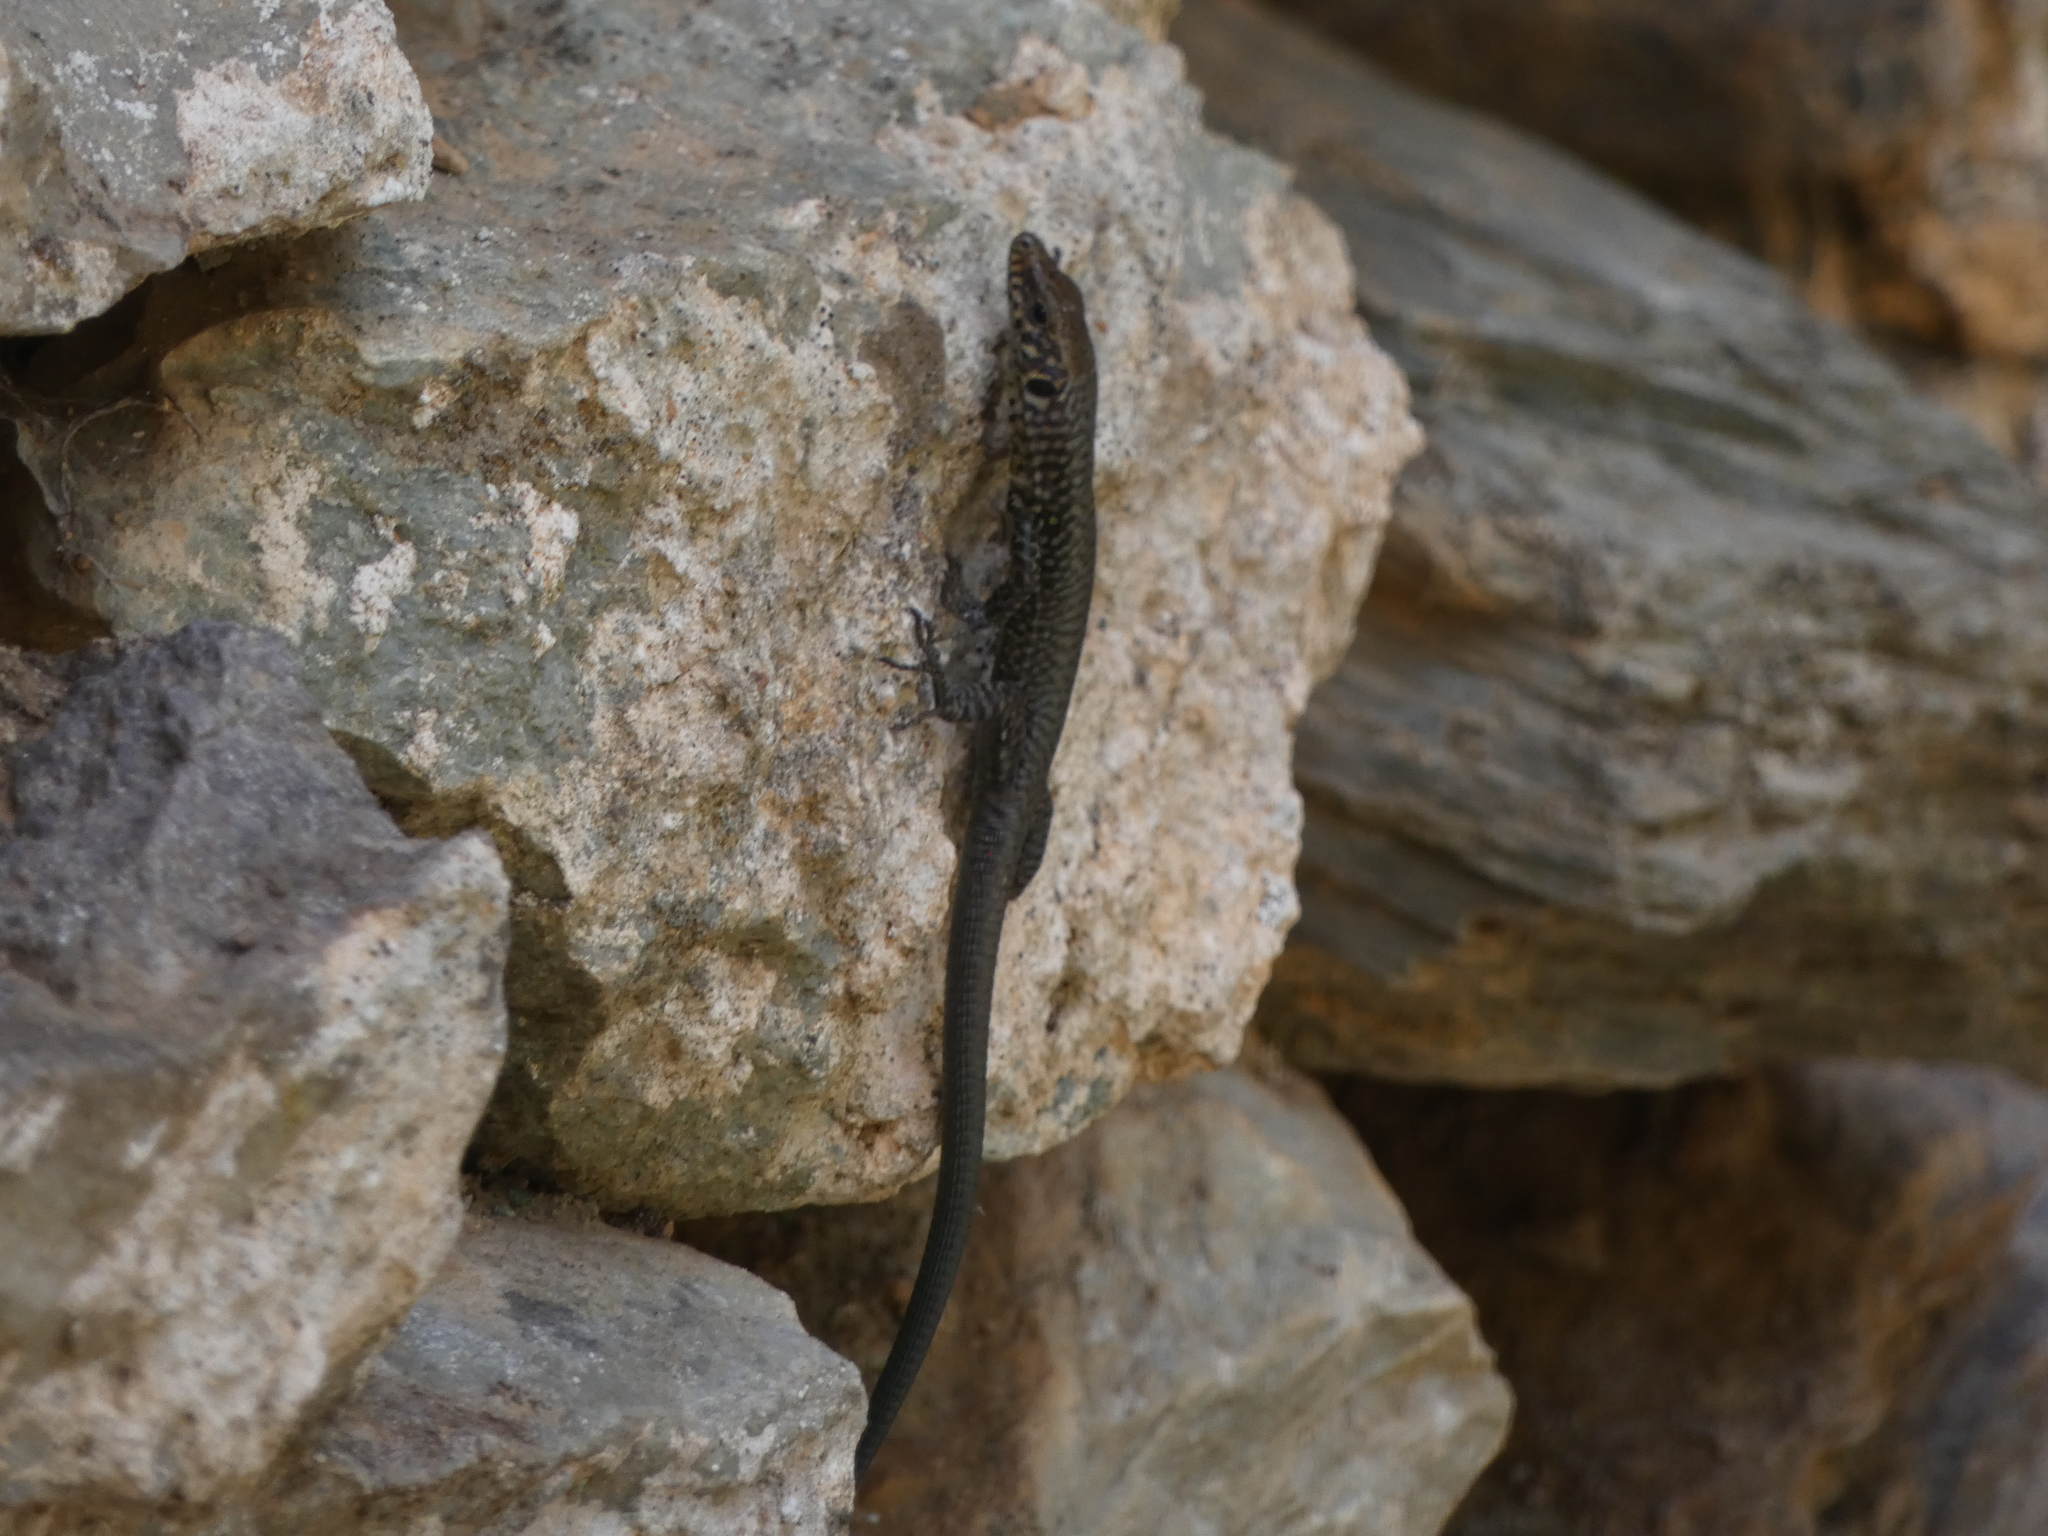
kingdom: Animalia
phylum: Chordata
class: Squamata
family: Lacertidae
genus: Hellenolacerta
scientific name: Hellenolacerta graeca
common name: Greek rock lizard
